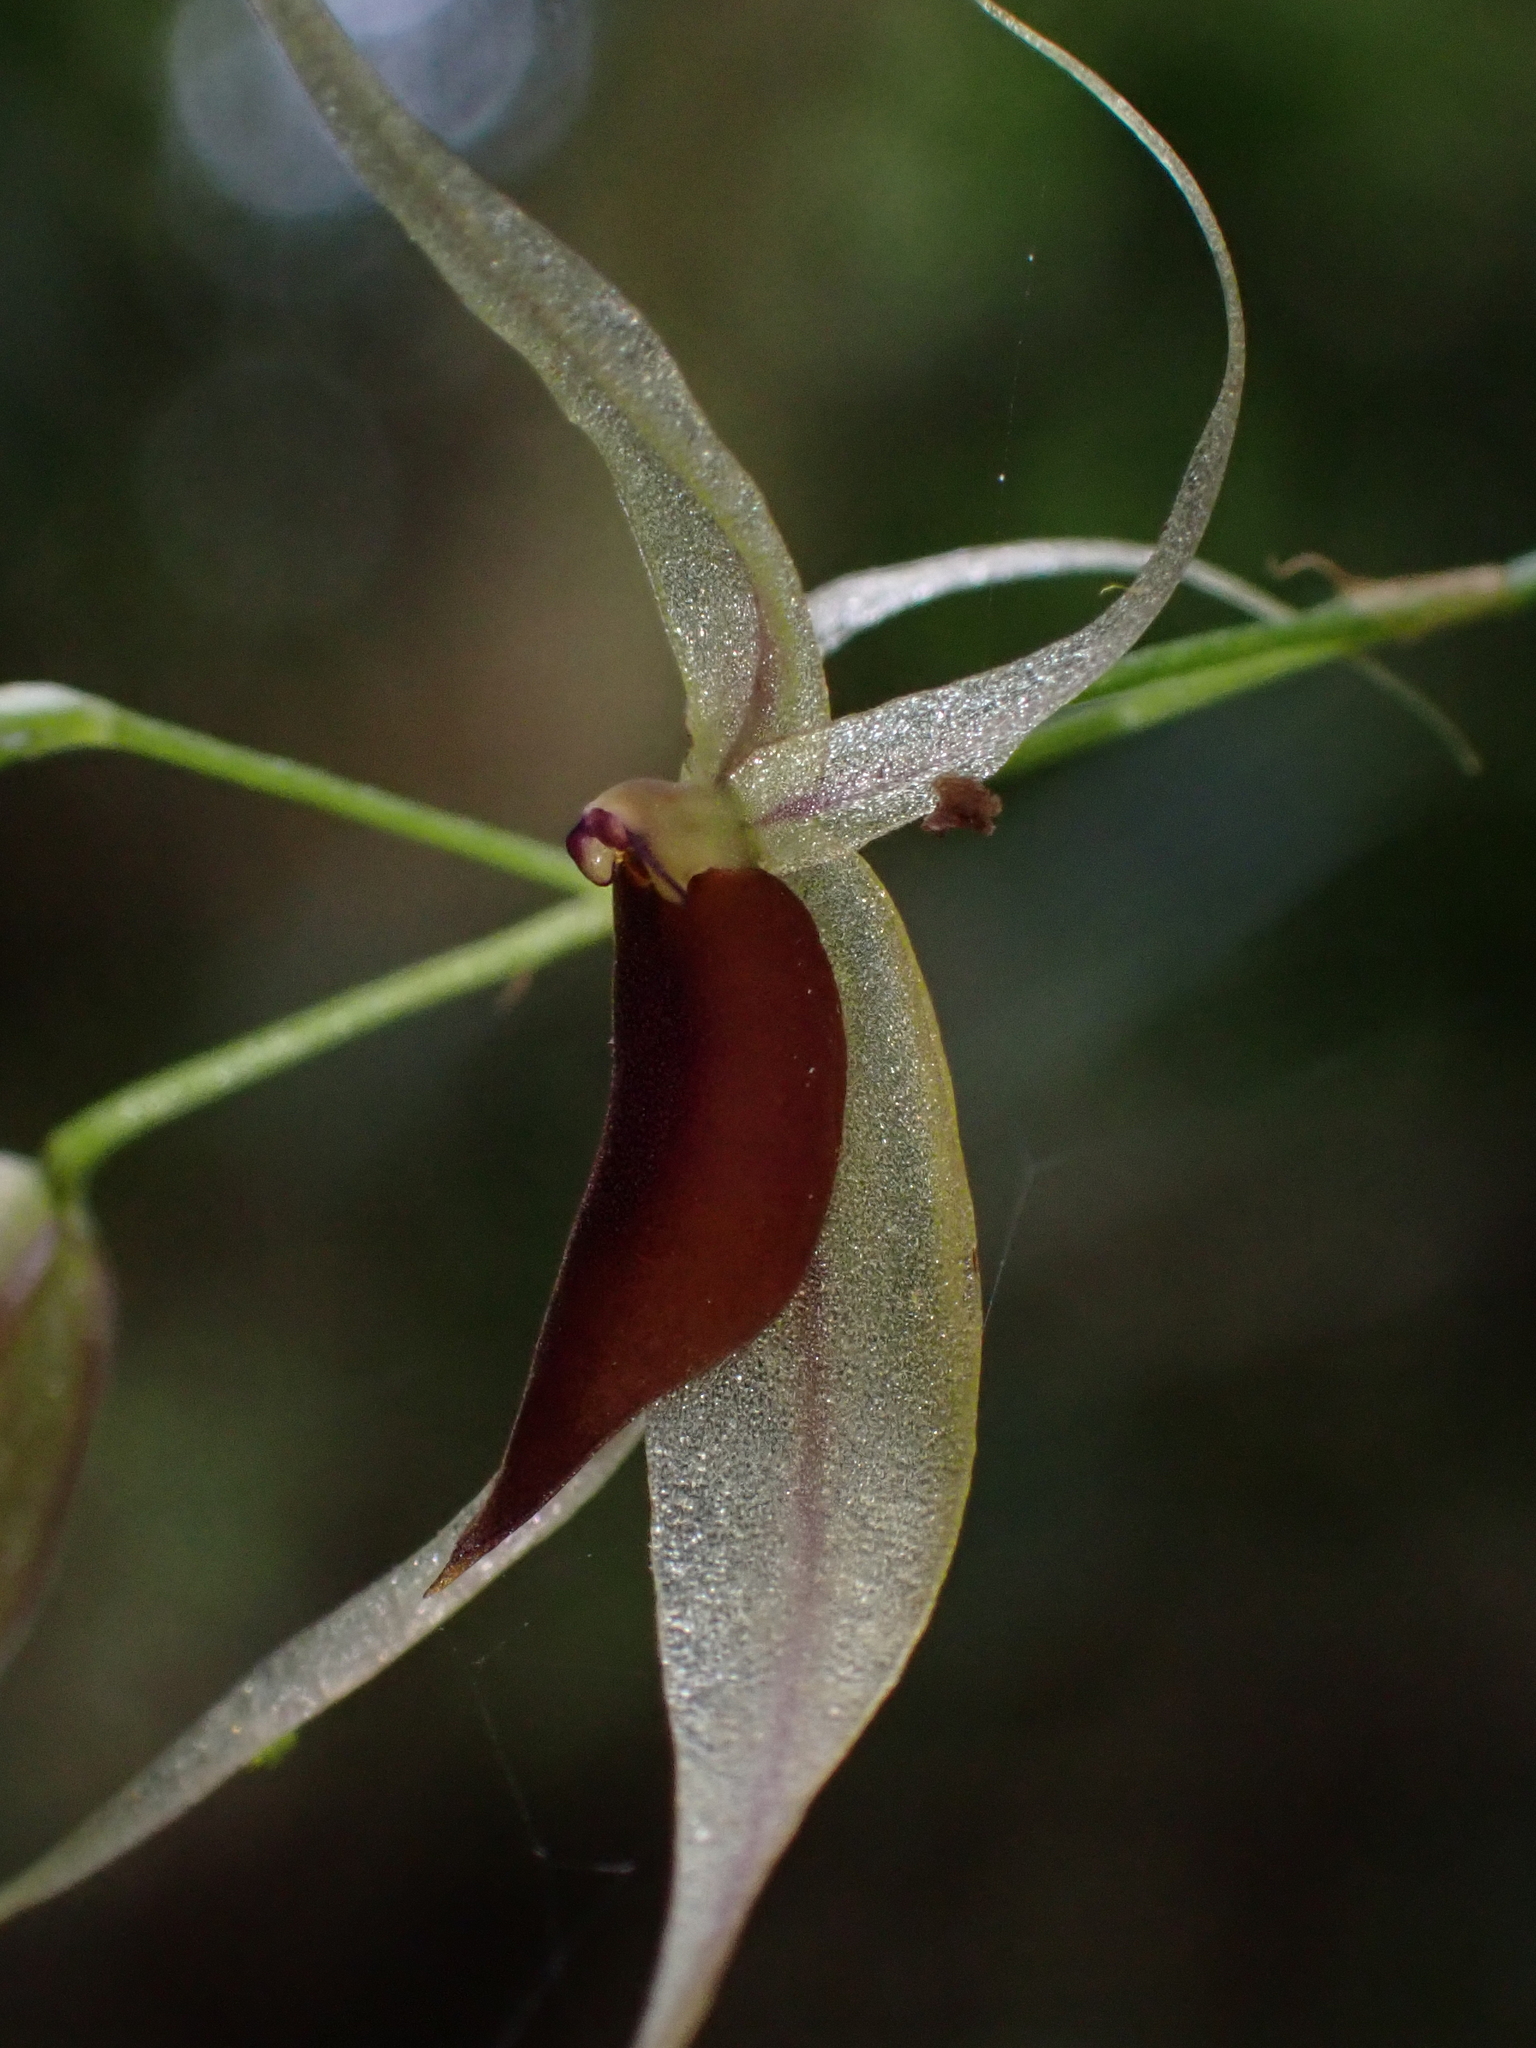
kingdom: Plantae
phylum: Tracheophyta
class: Liliopsida
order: Asparagales
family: Orchidaceae
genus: Platystele
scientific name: Platystele hirtzii
